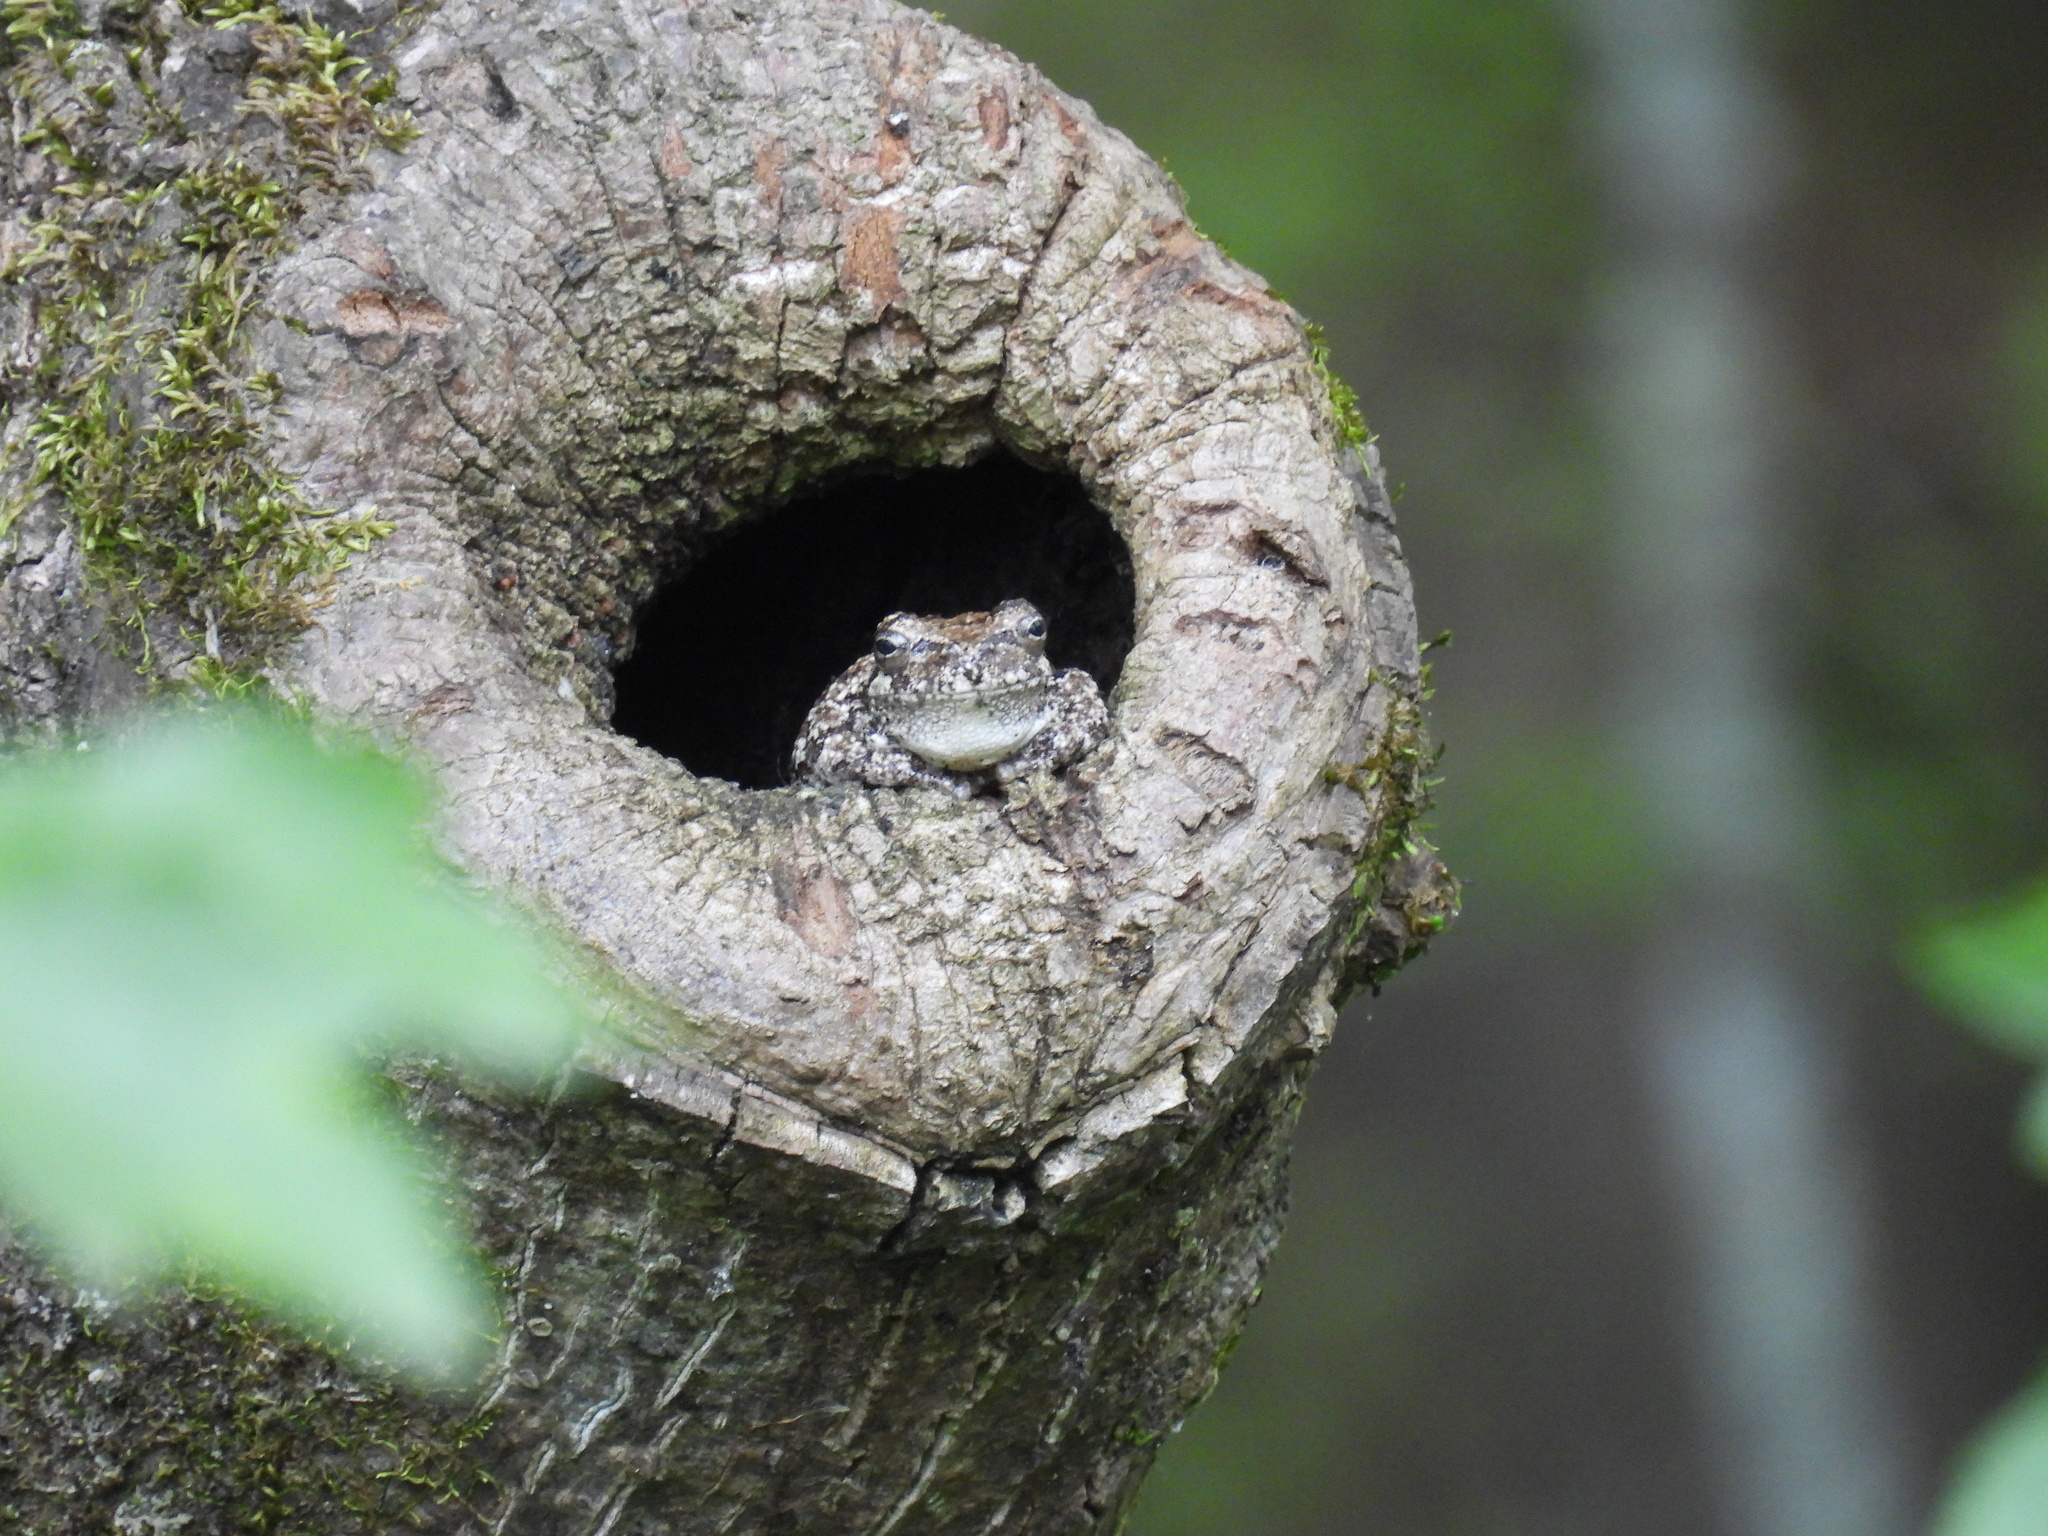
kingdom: Animalia
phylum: Chordata
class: Amphibia
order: Anura
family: Hylidae
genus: Dryophytes
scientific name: Dryophytes chrysoscelis
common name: Cope's gray treefrog
